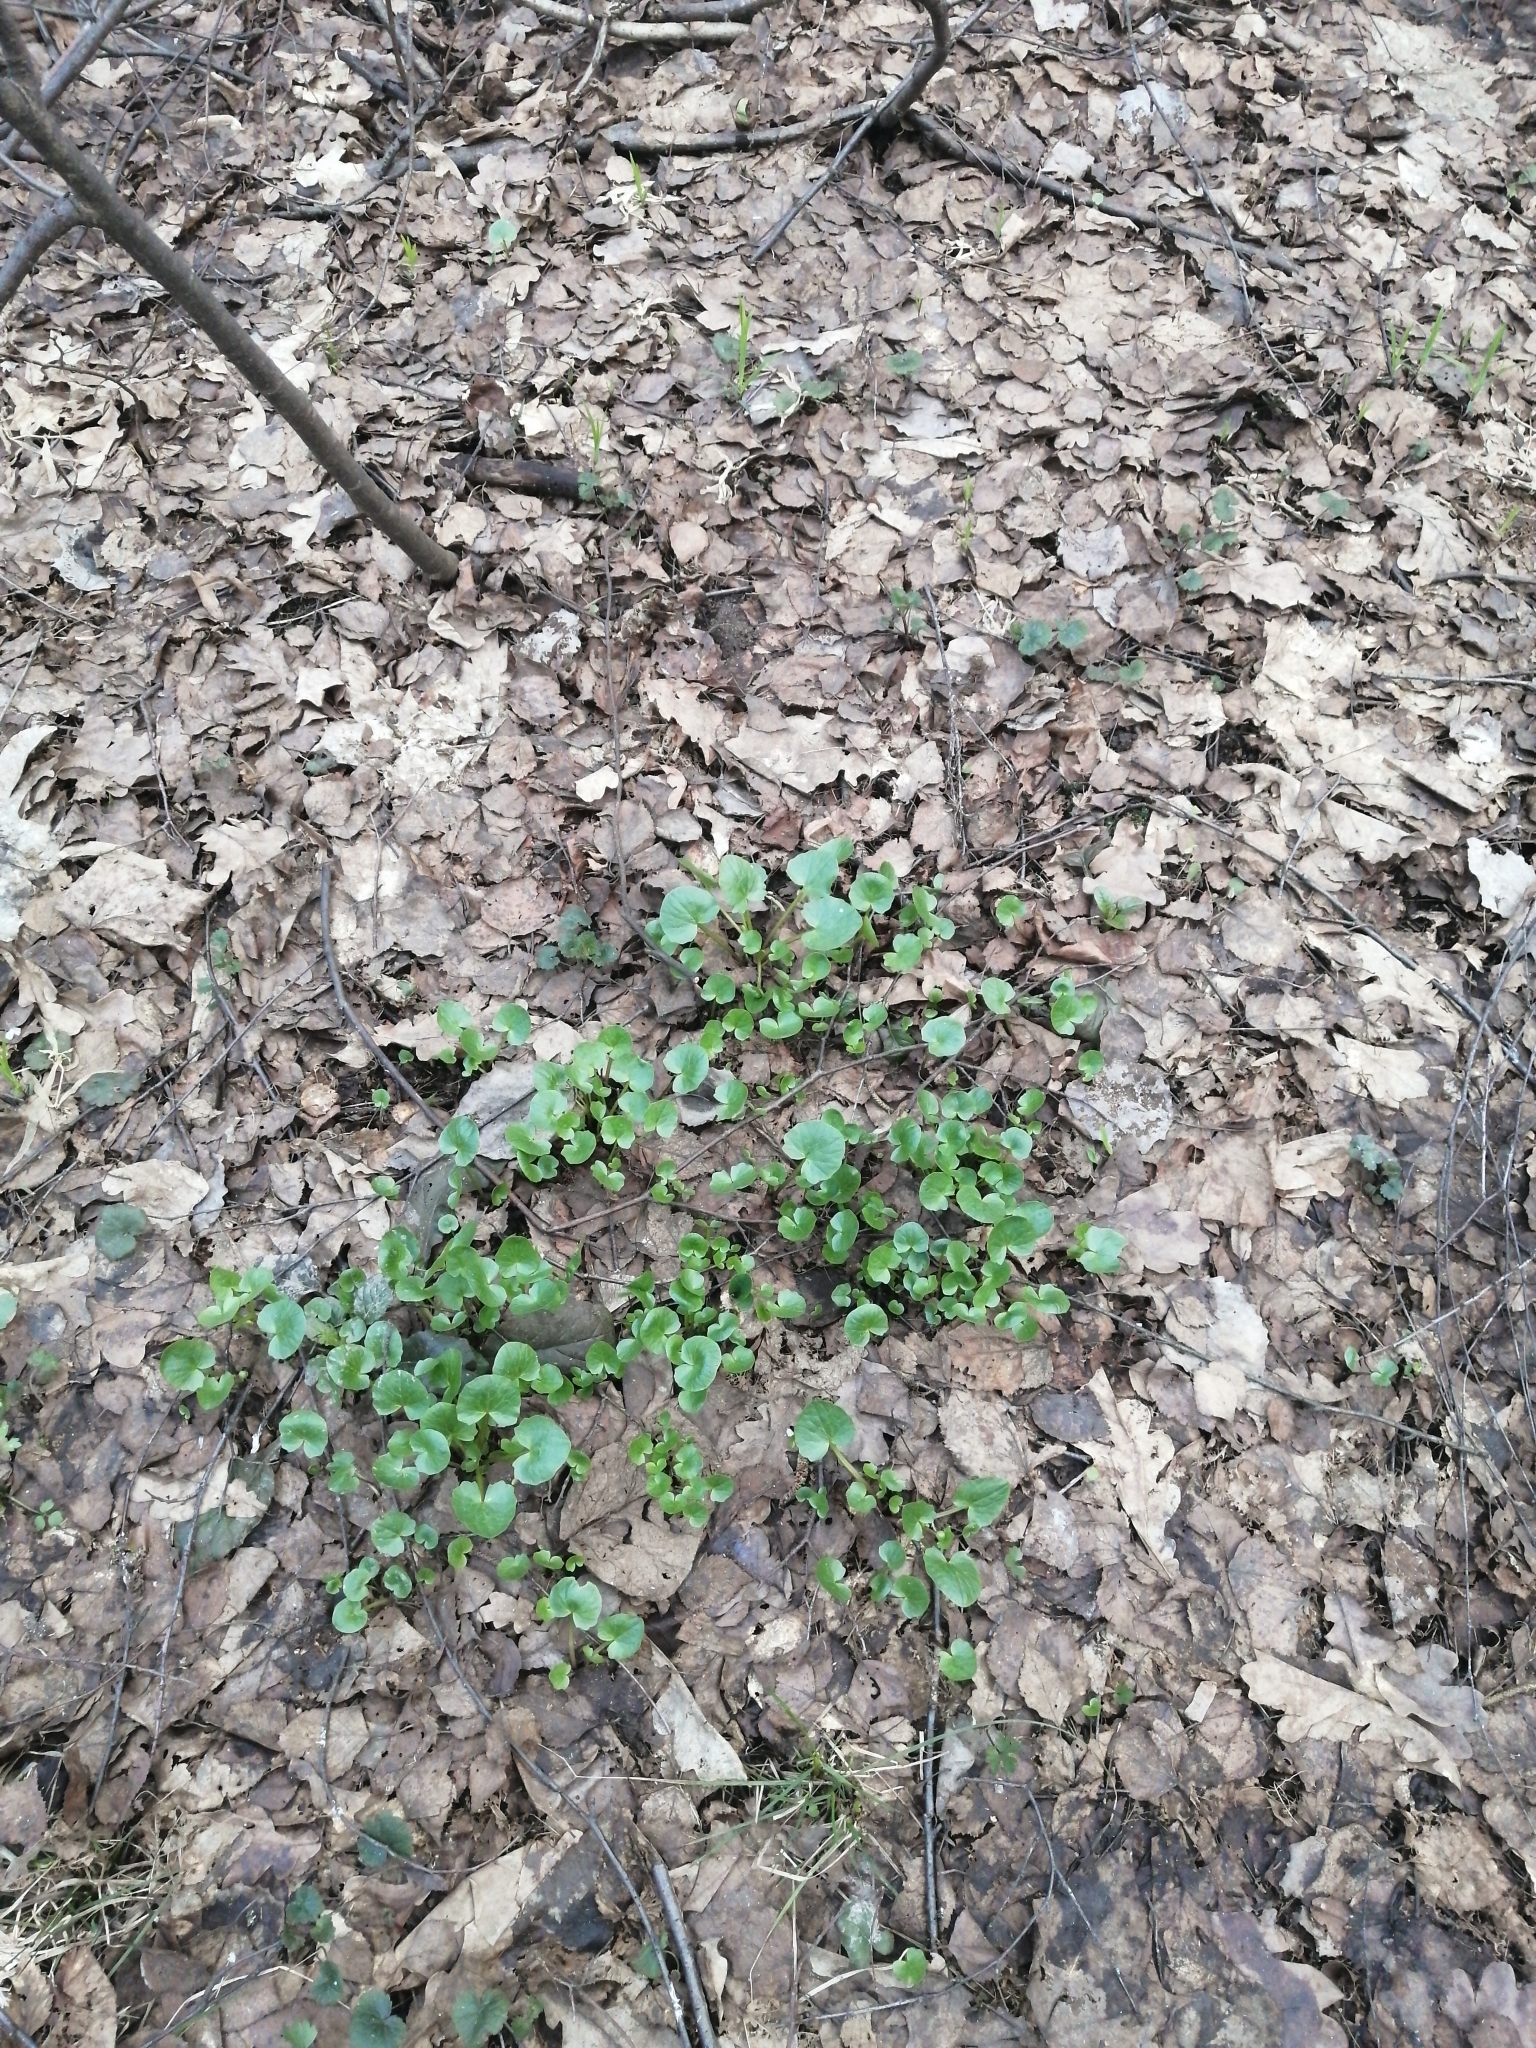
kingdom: Plantae
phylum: Tracheophyta
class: Magnoliopsida
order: Ranunculales
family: Ranunculaceae
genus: Ficaria
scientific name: Ficaria verna
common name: Lesser celandine
